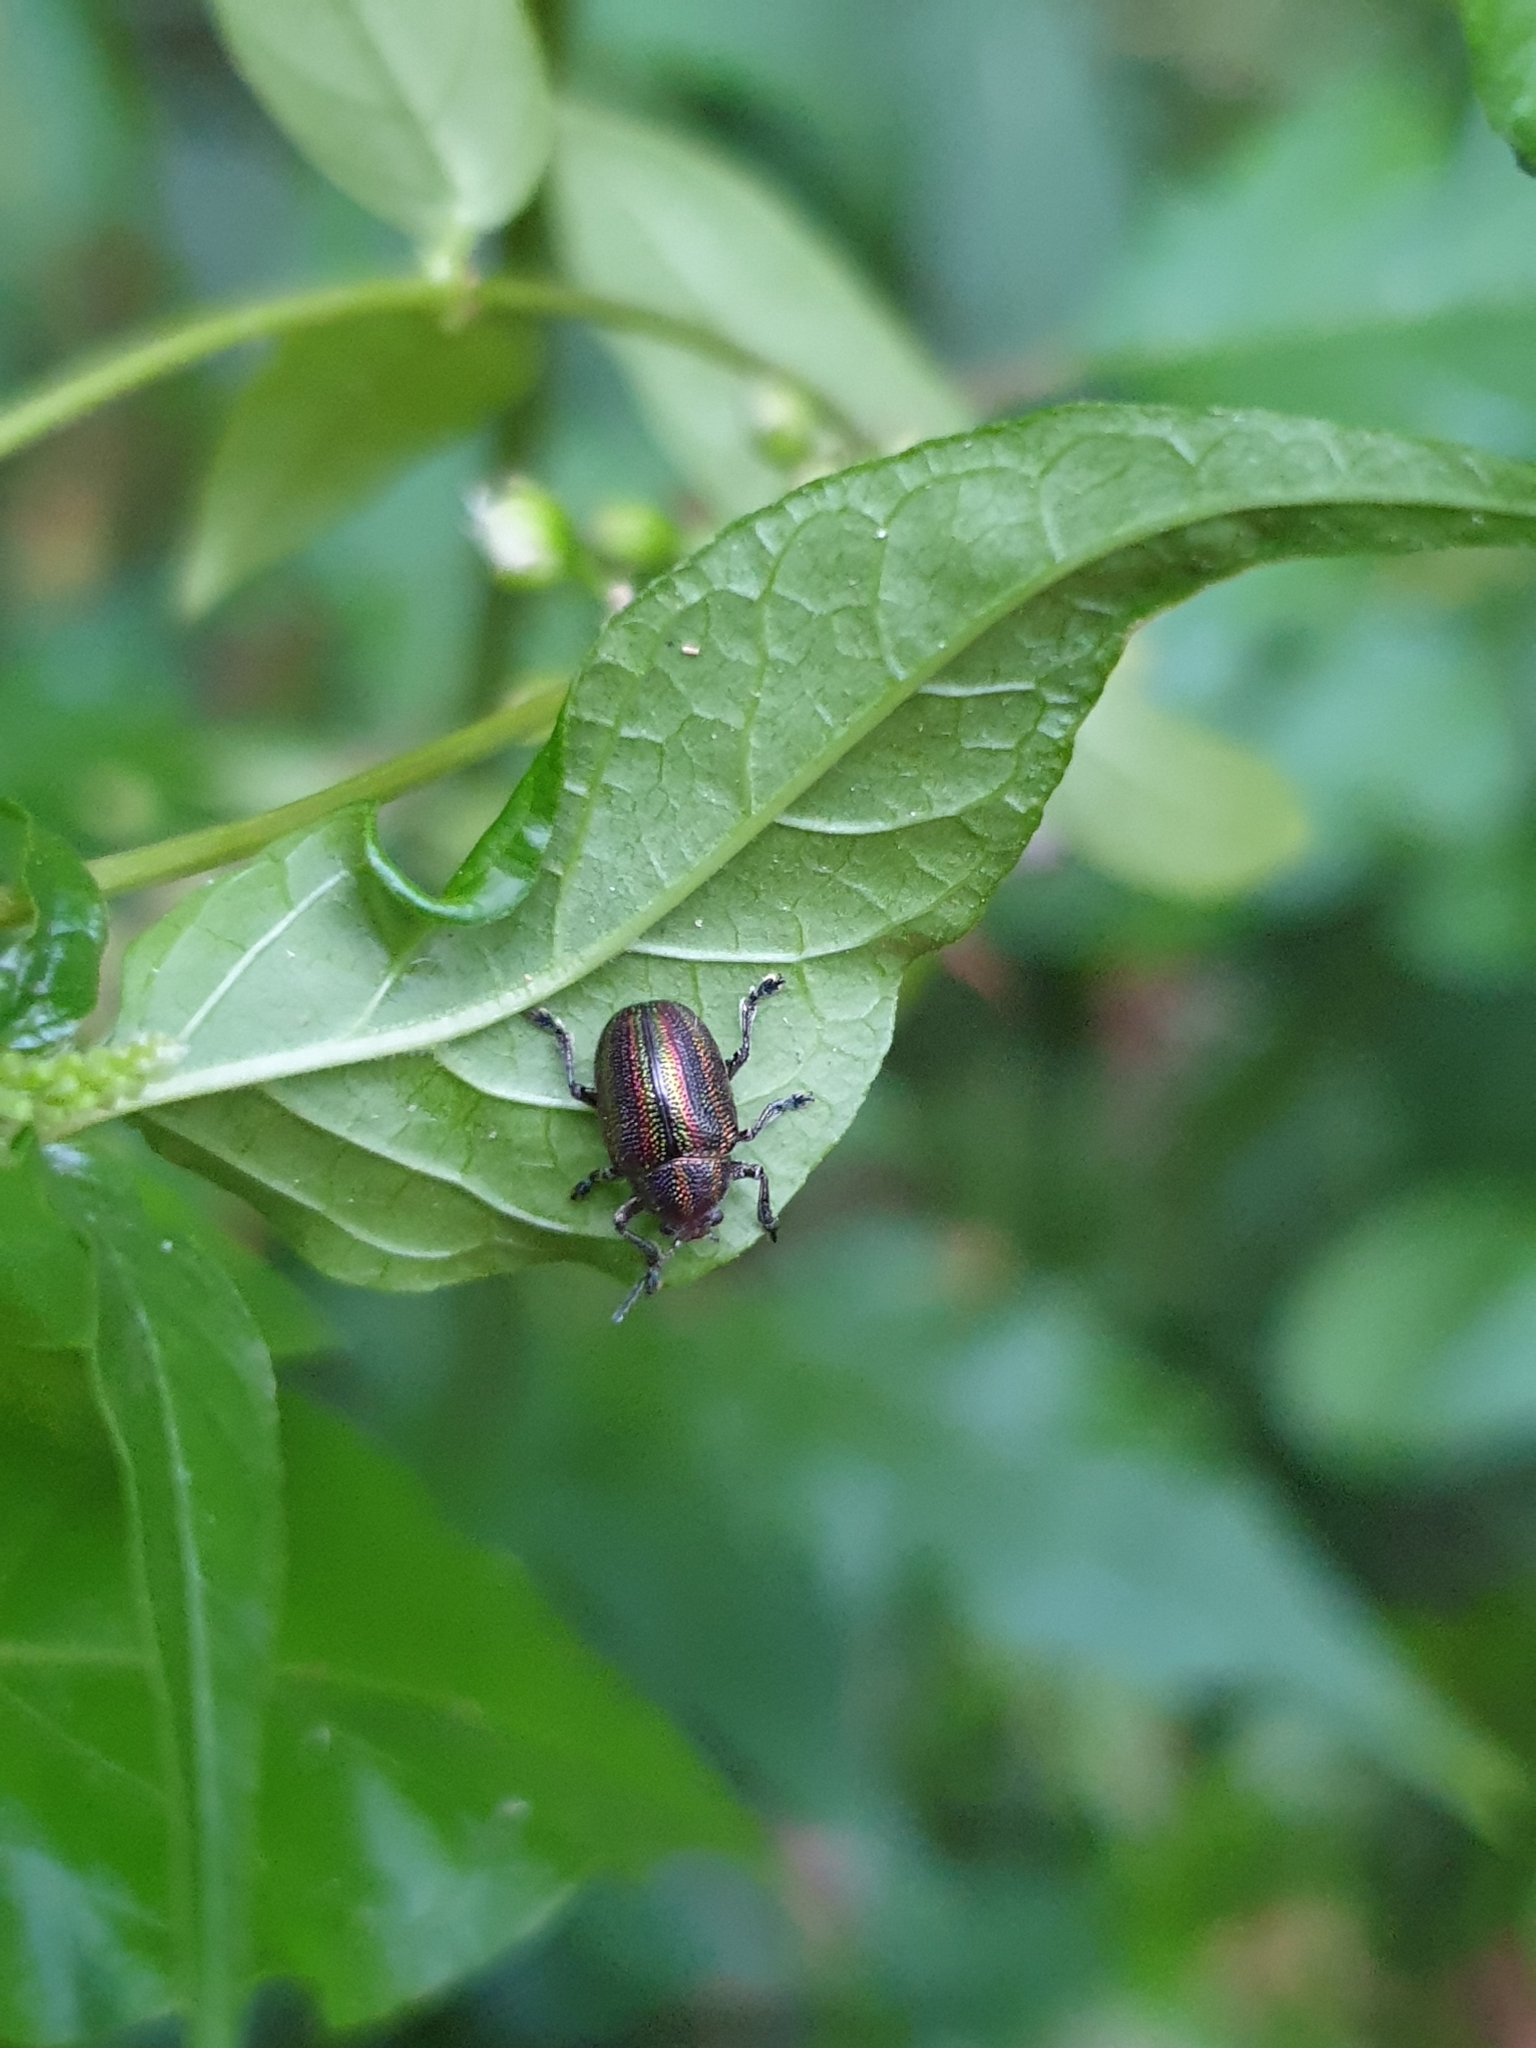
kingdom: Animalia
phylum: Arthropoda
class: Insecta
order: Coleoptera
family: Chrysomelidae
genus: Eurypelta
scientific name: Eurypelta
